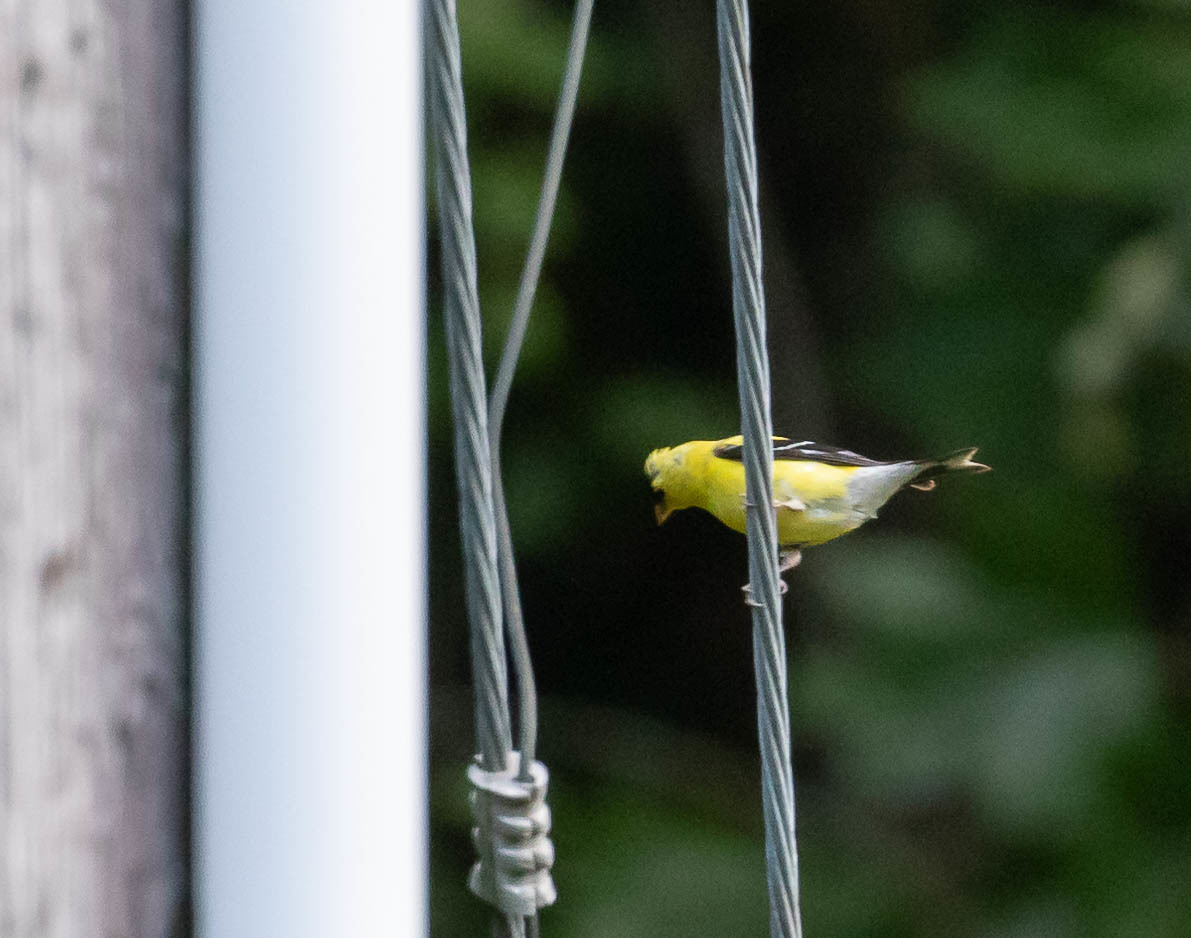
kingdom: Animalia
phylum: Chordata
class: Aves
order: Passeriformes
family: Fringillidae
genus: Spinus
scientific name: Spinus tristis
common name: American goldfinch
